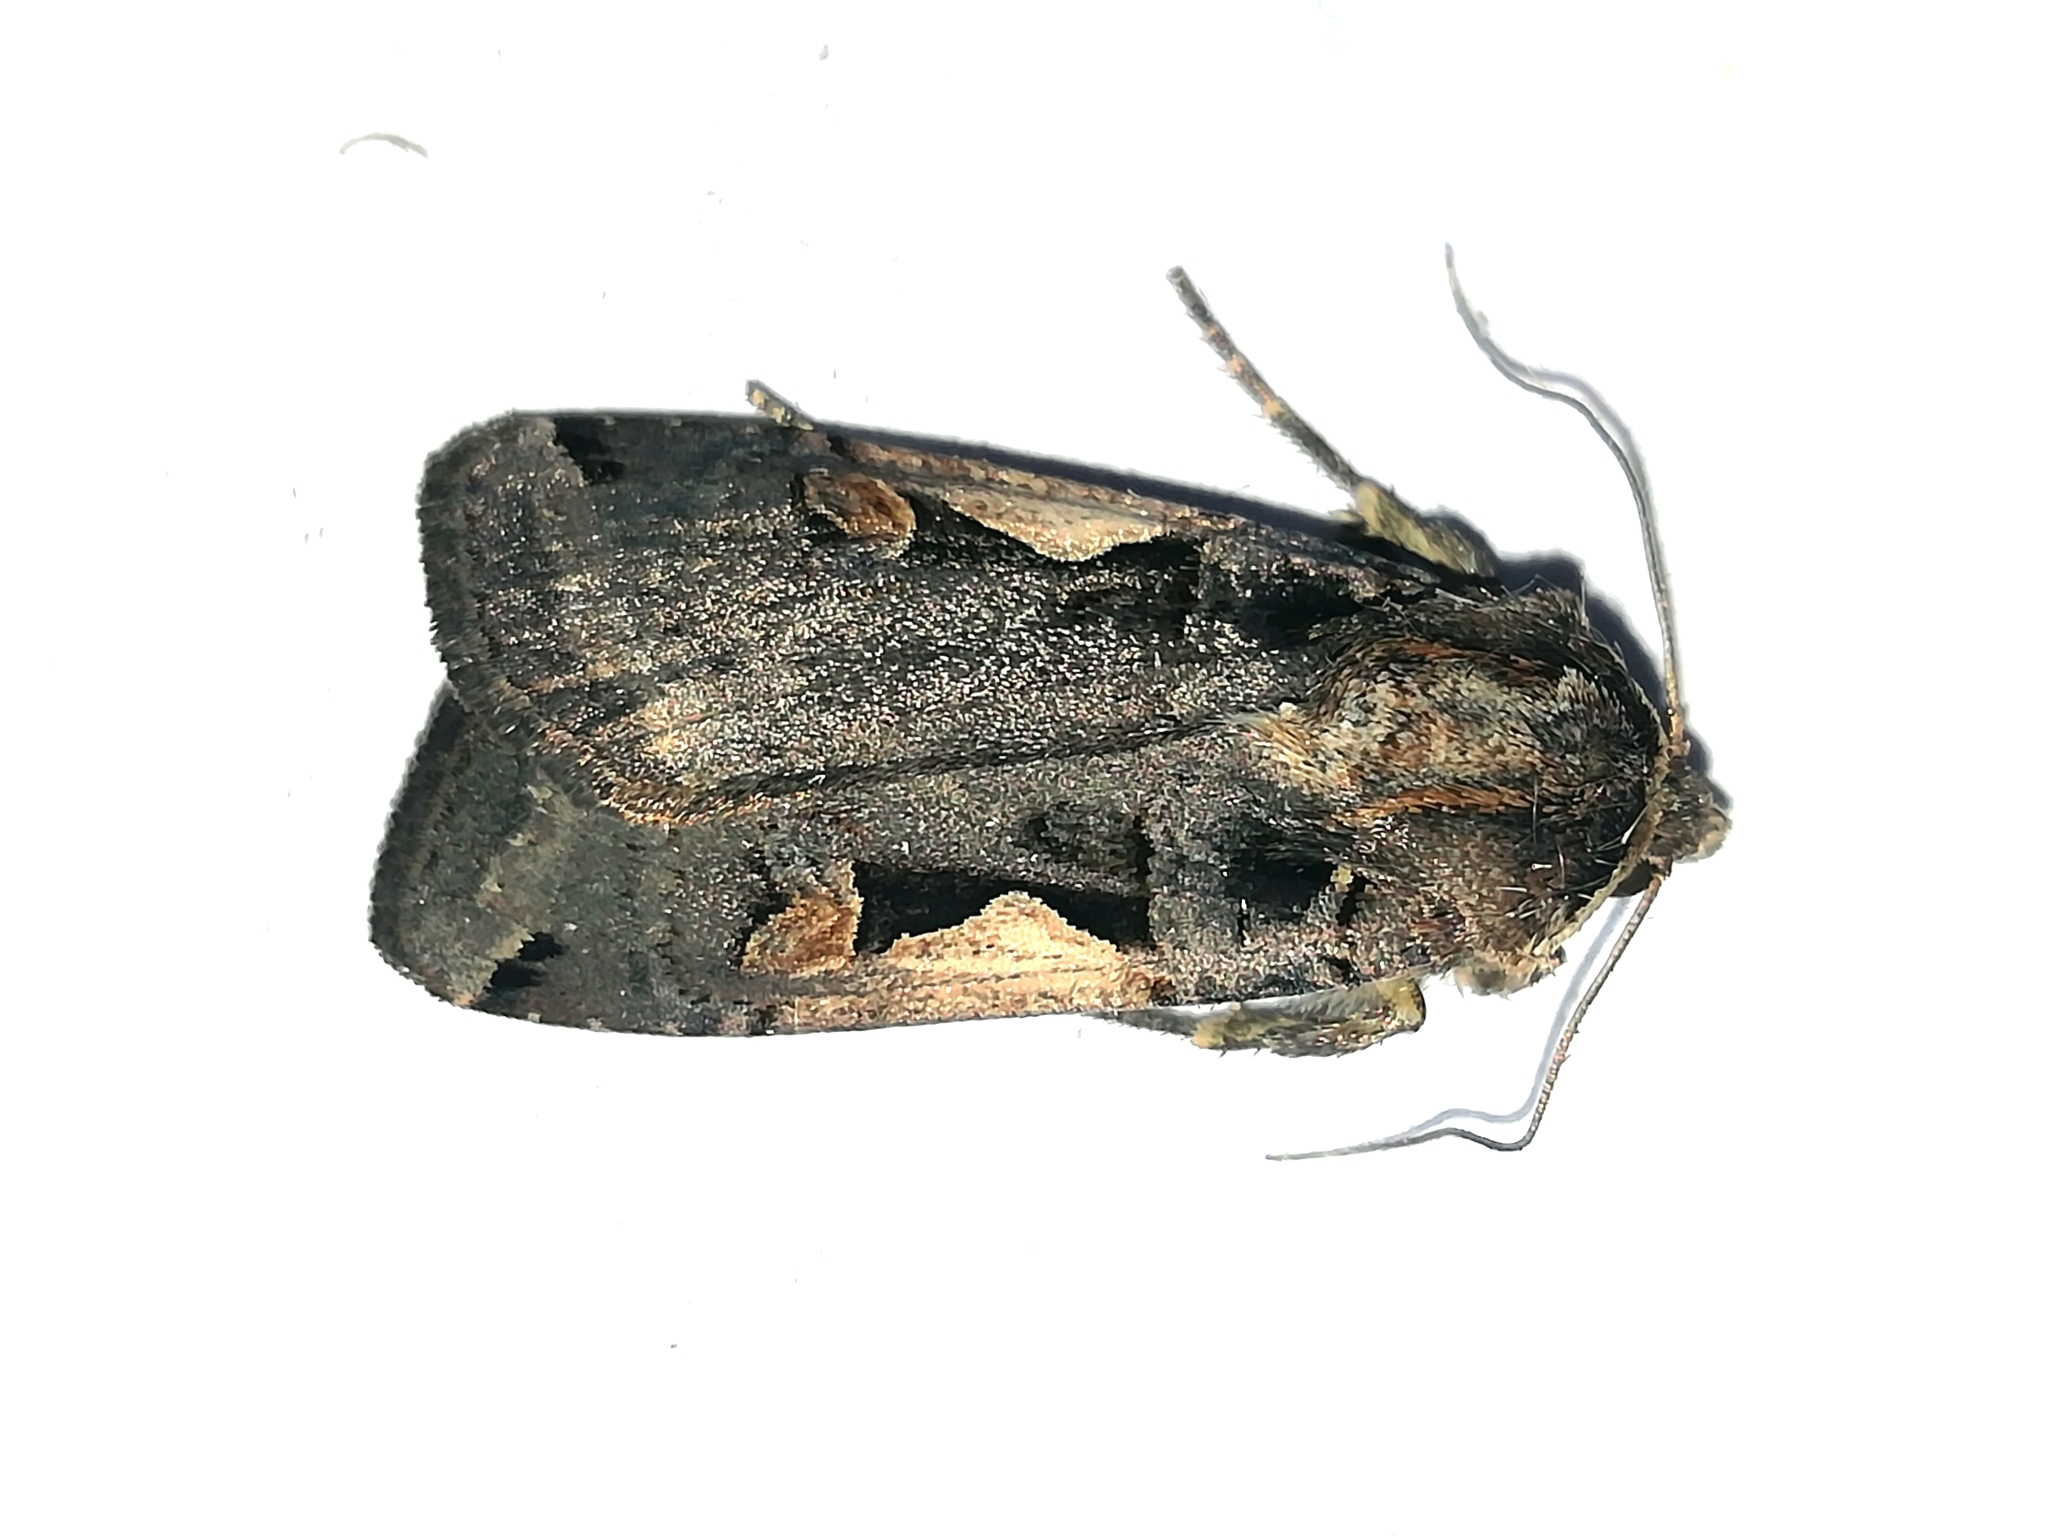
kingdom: Animalia
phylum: Arthropoda
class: Insecta
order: Lepidoptera
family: Noctuidae
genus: Xestia
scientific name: Xestia c-nigrum
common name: Setaceous hebrew character
